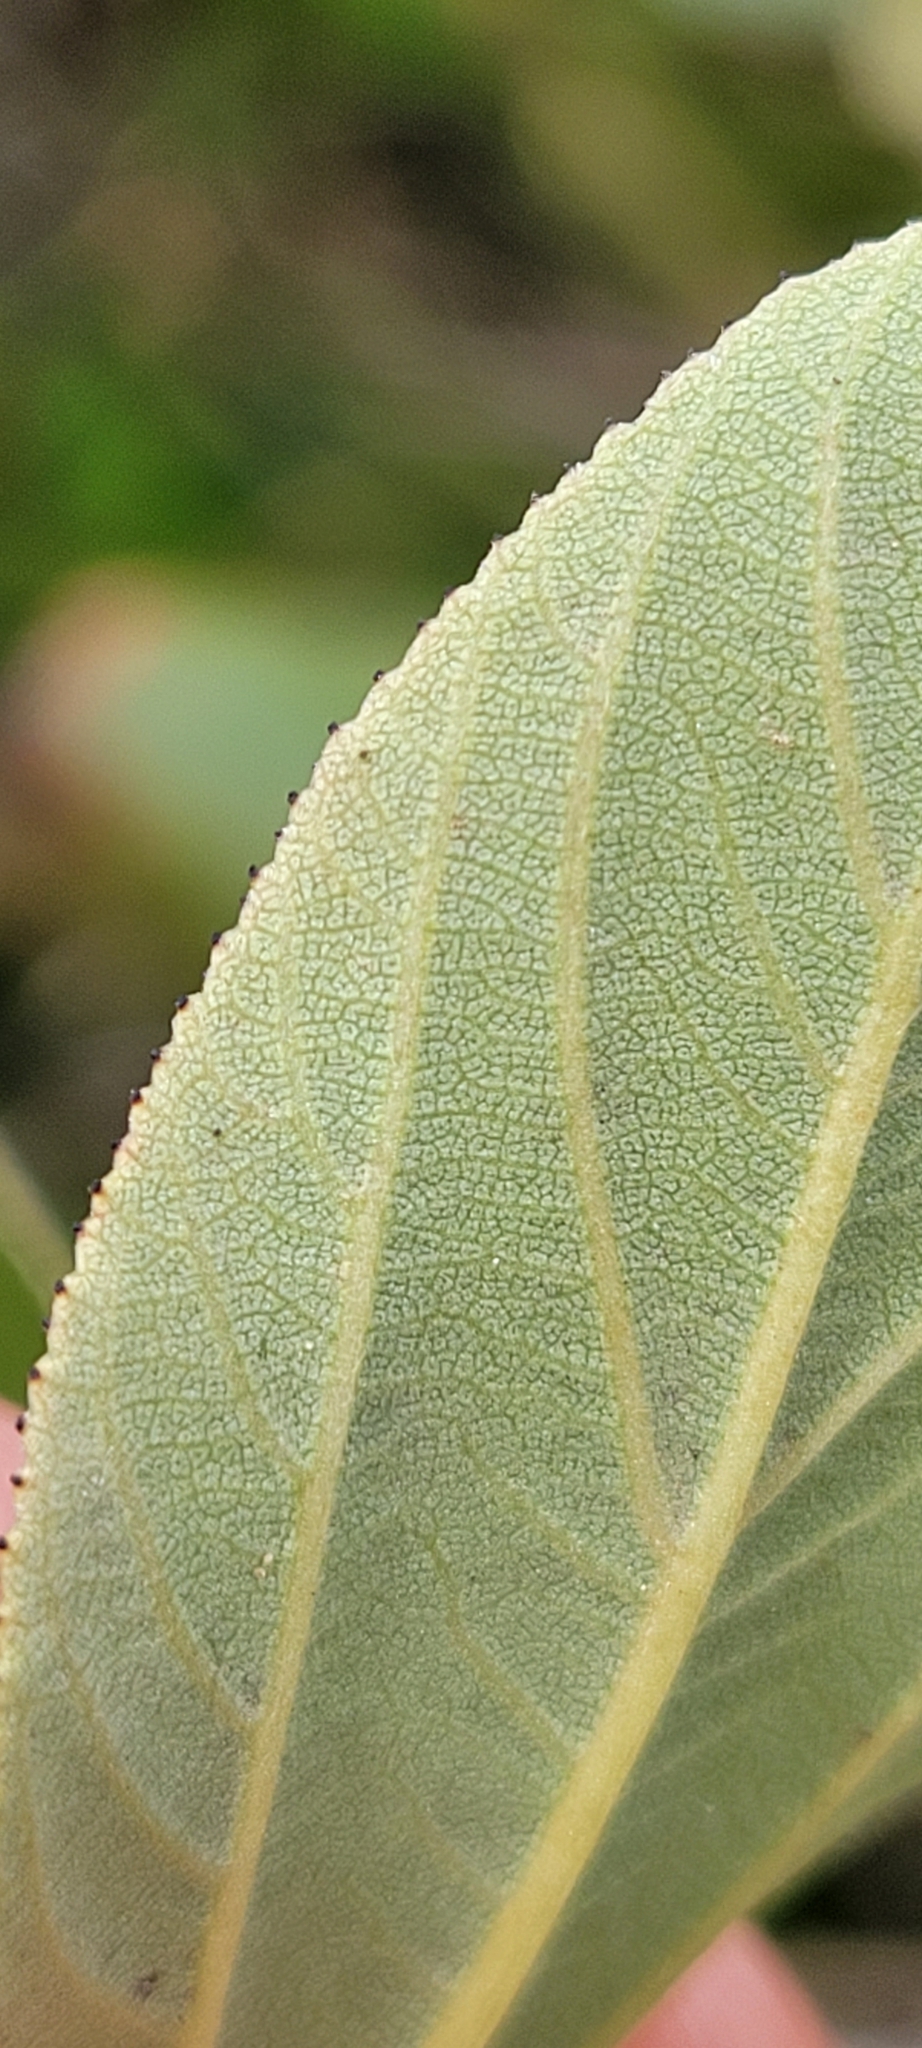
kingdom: Plantae
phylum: Tracheophyta
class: Magnoliopsida
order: Rosales
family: Rhamnaceae
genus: Ceanothus
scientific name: Ceanothus velutinus
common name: Snowbrush
